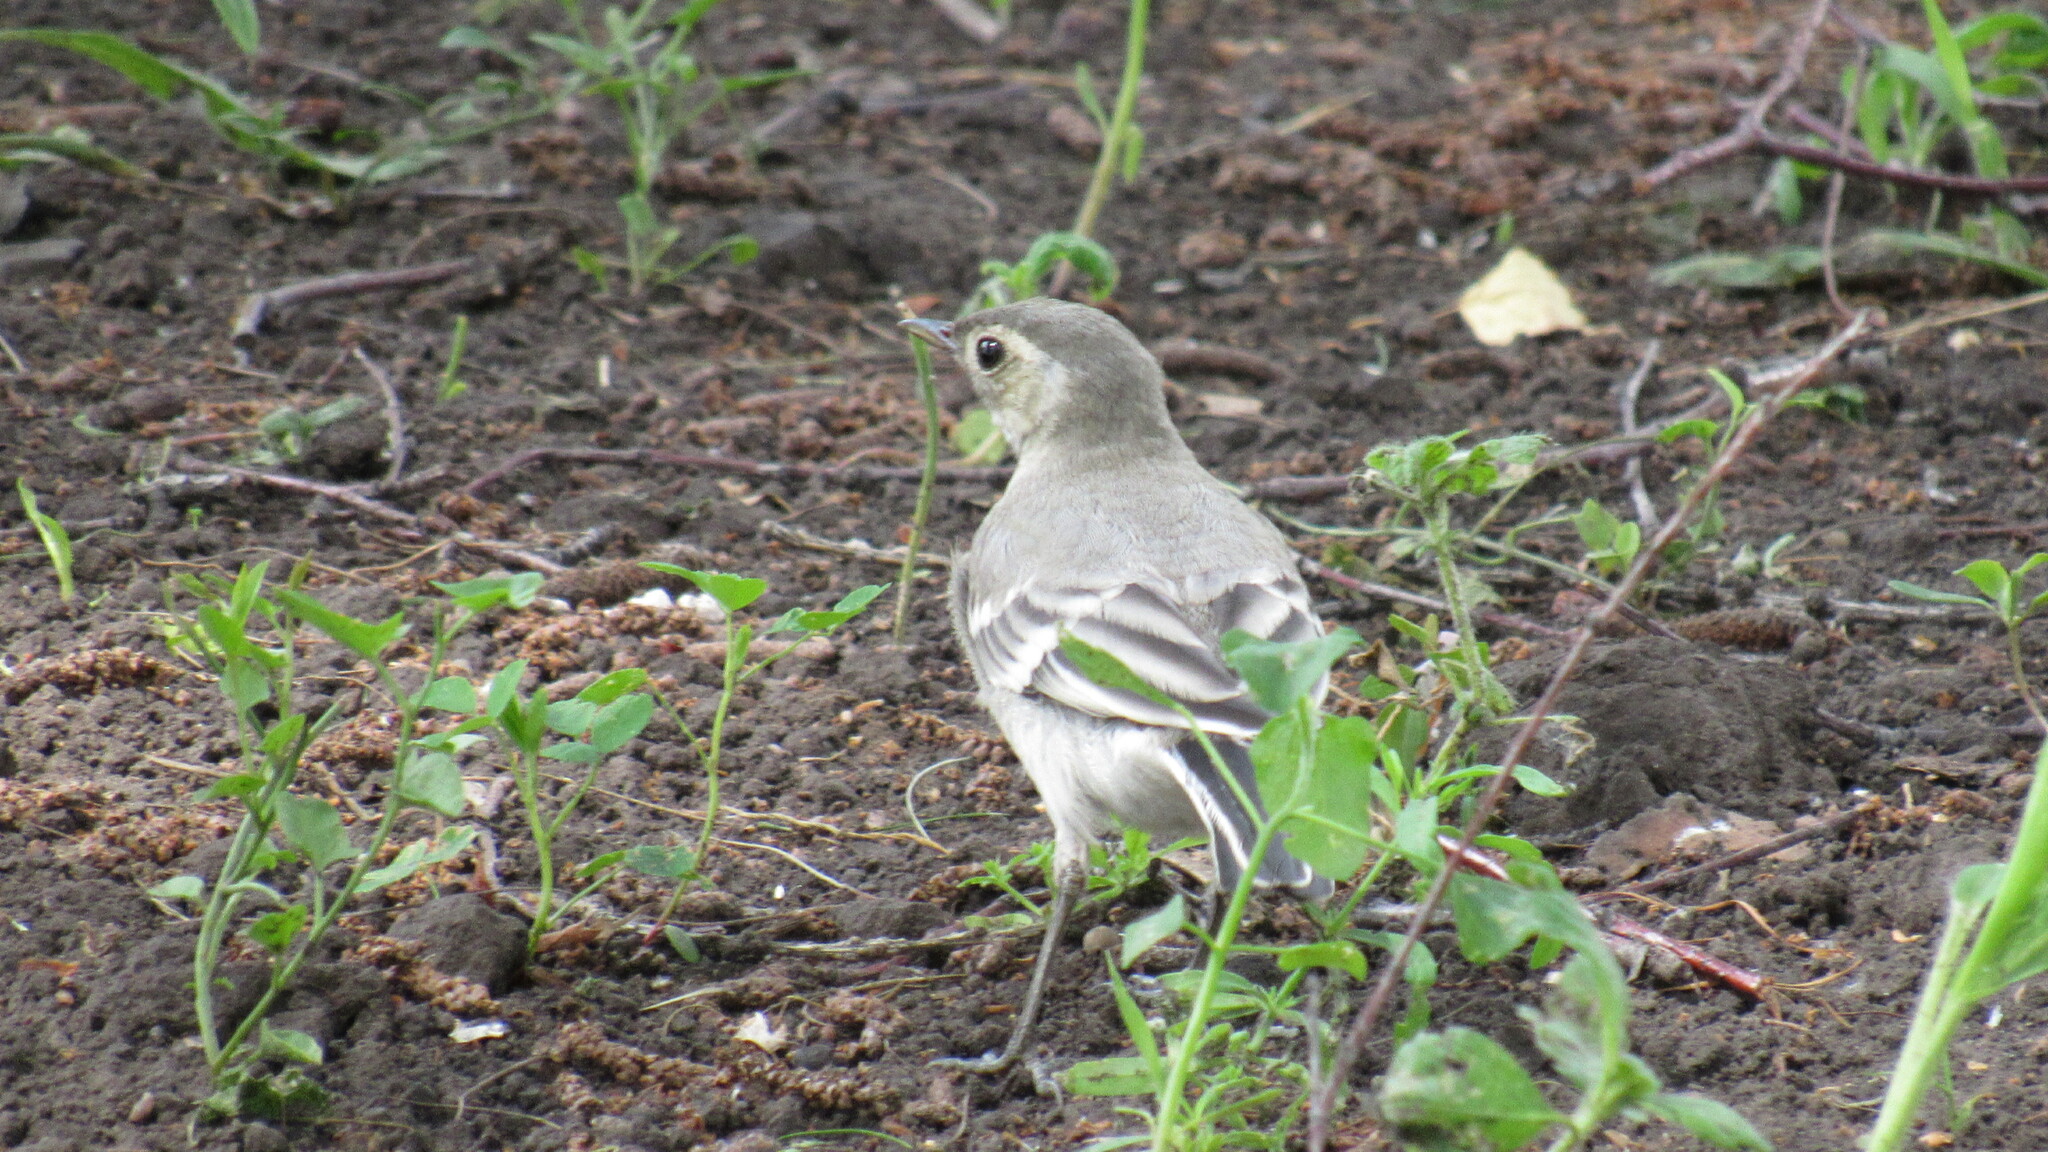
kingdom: Animalia
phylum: Chordata
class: Aves
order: Passeriformes
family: Motacillidae
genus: Motacilla
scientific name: Motacilla alba
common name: White wagtail
